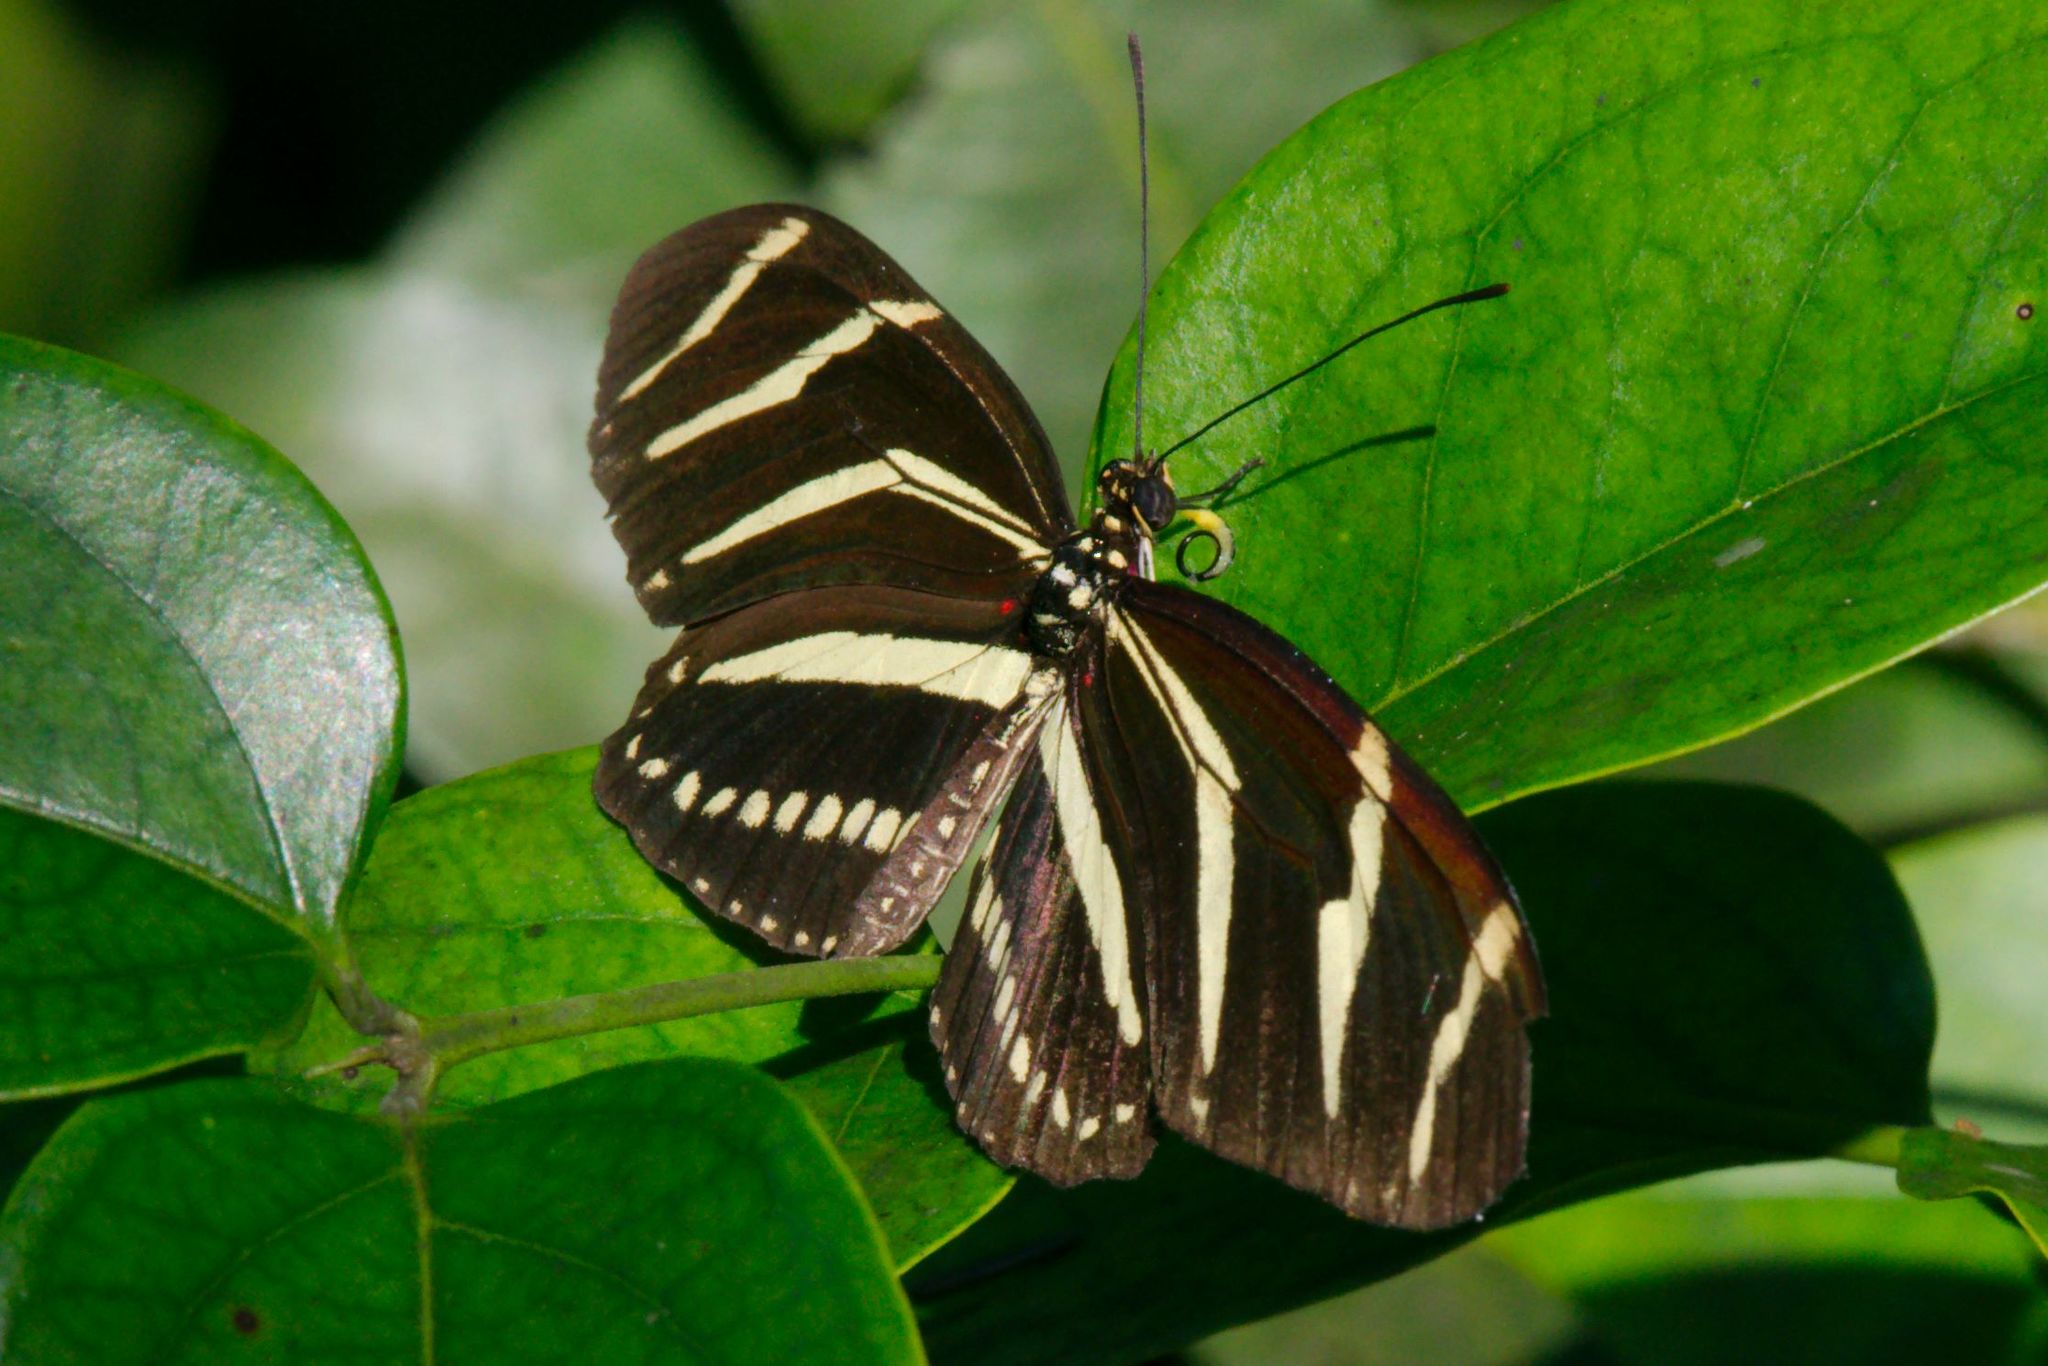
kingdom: Animalia
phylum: Arthropoda
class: Insecta
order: Lepidoptera
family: Nymphalidae
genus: Heliconius
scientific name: Heliconius charithonia
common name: Zebra long wing
